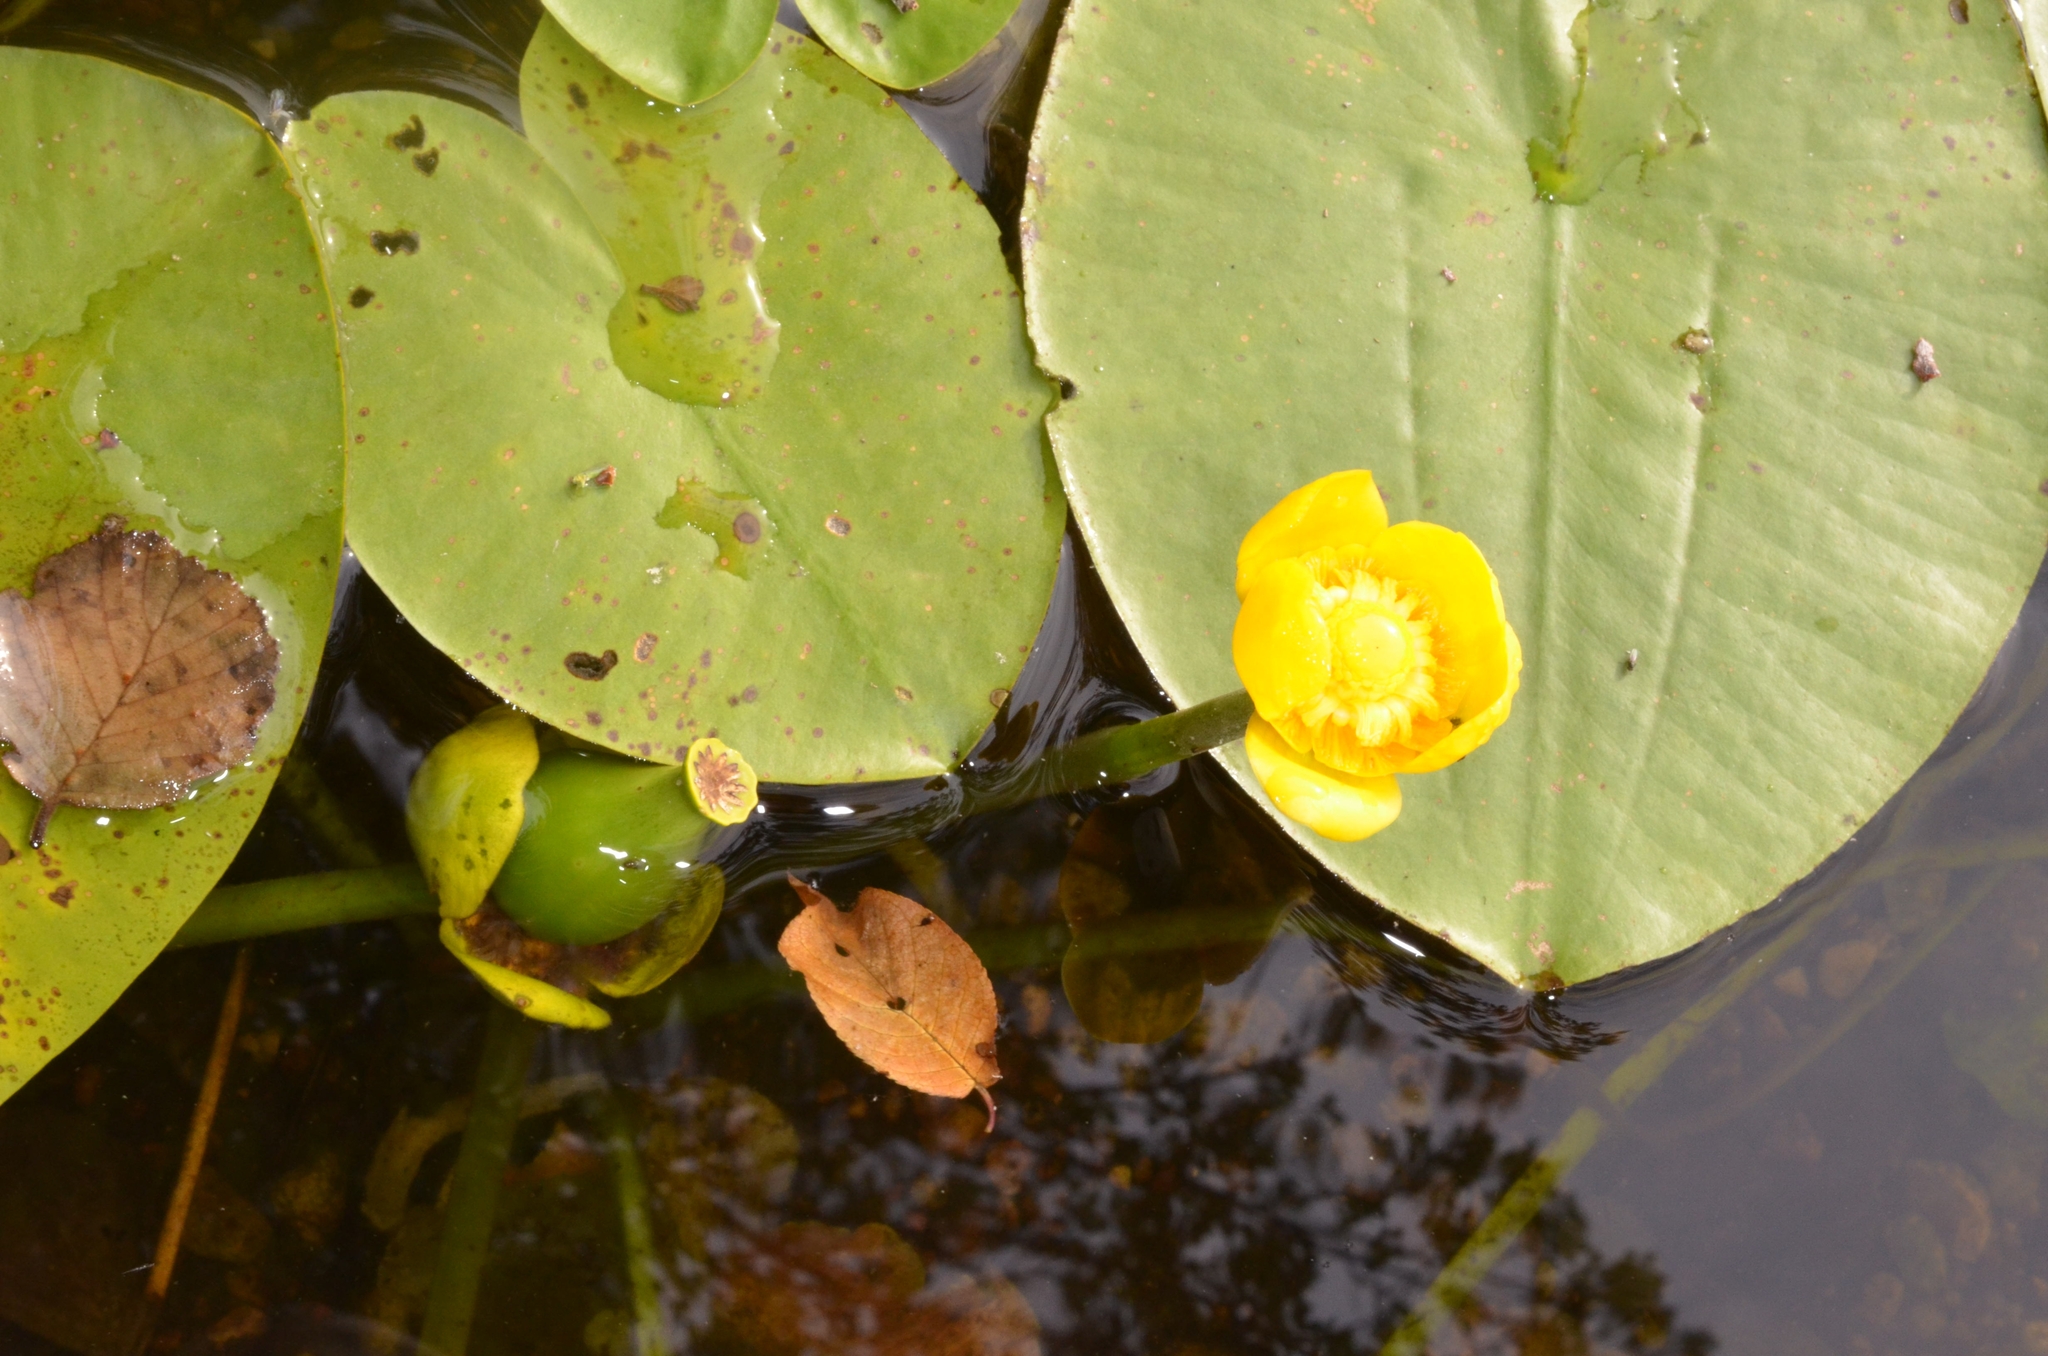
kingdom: Plantae
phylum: Tracheophyta
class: Magnoliopsida
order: Nymphaeales
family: Nymphaeaceae
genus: Nuphar
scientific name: Nuphar lutea
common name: Yellow water-lily
